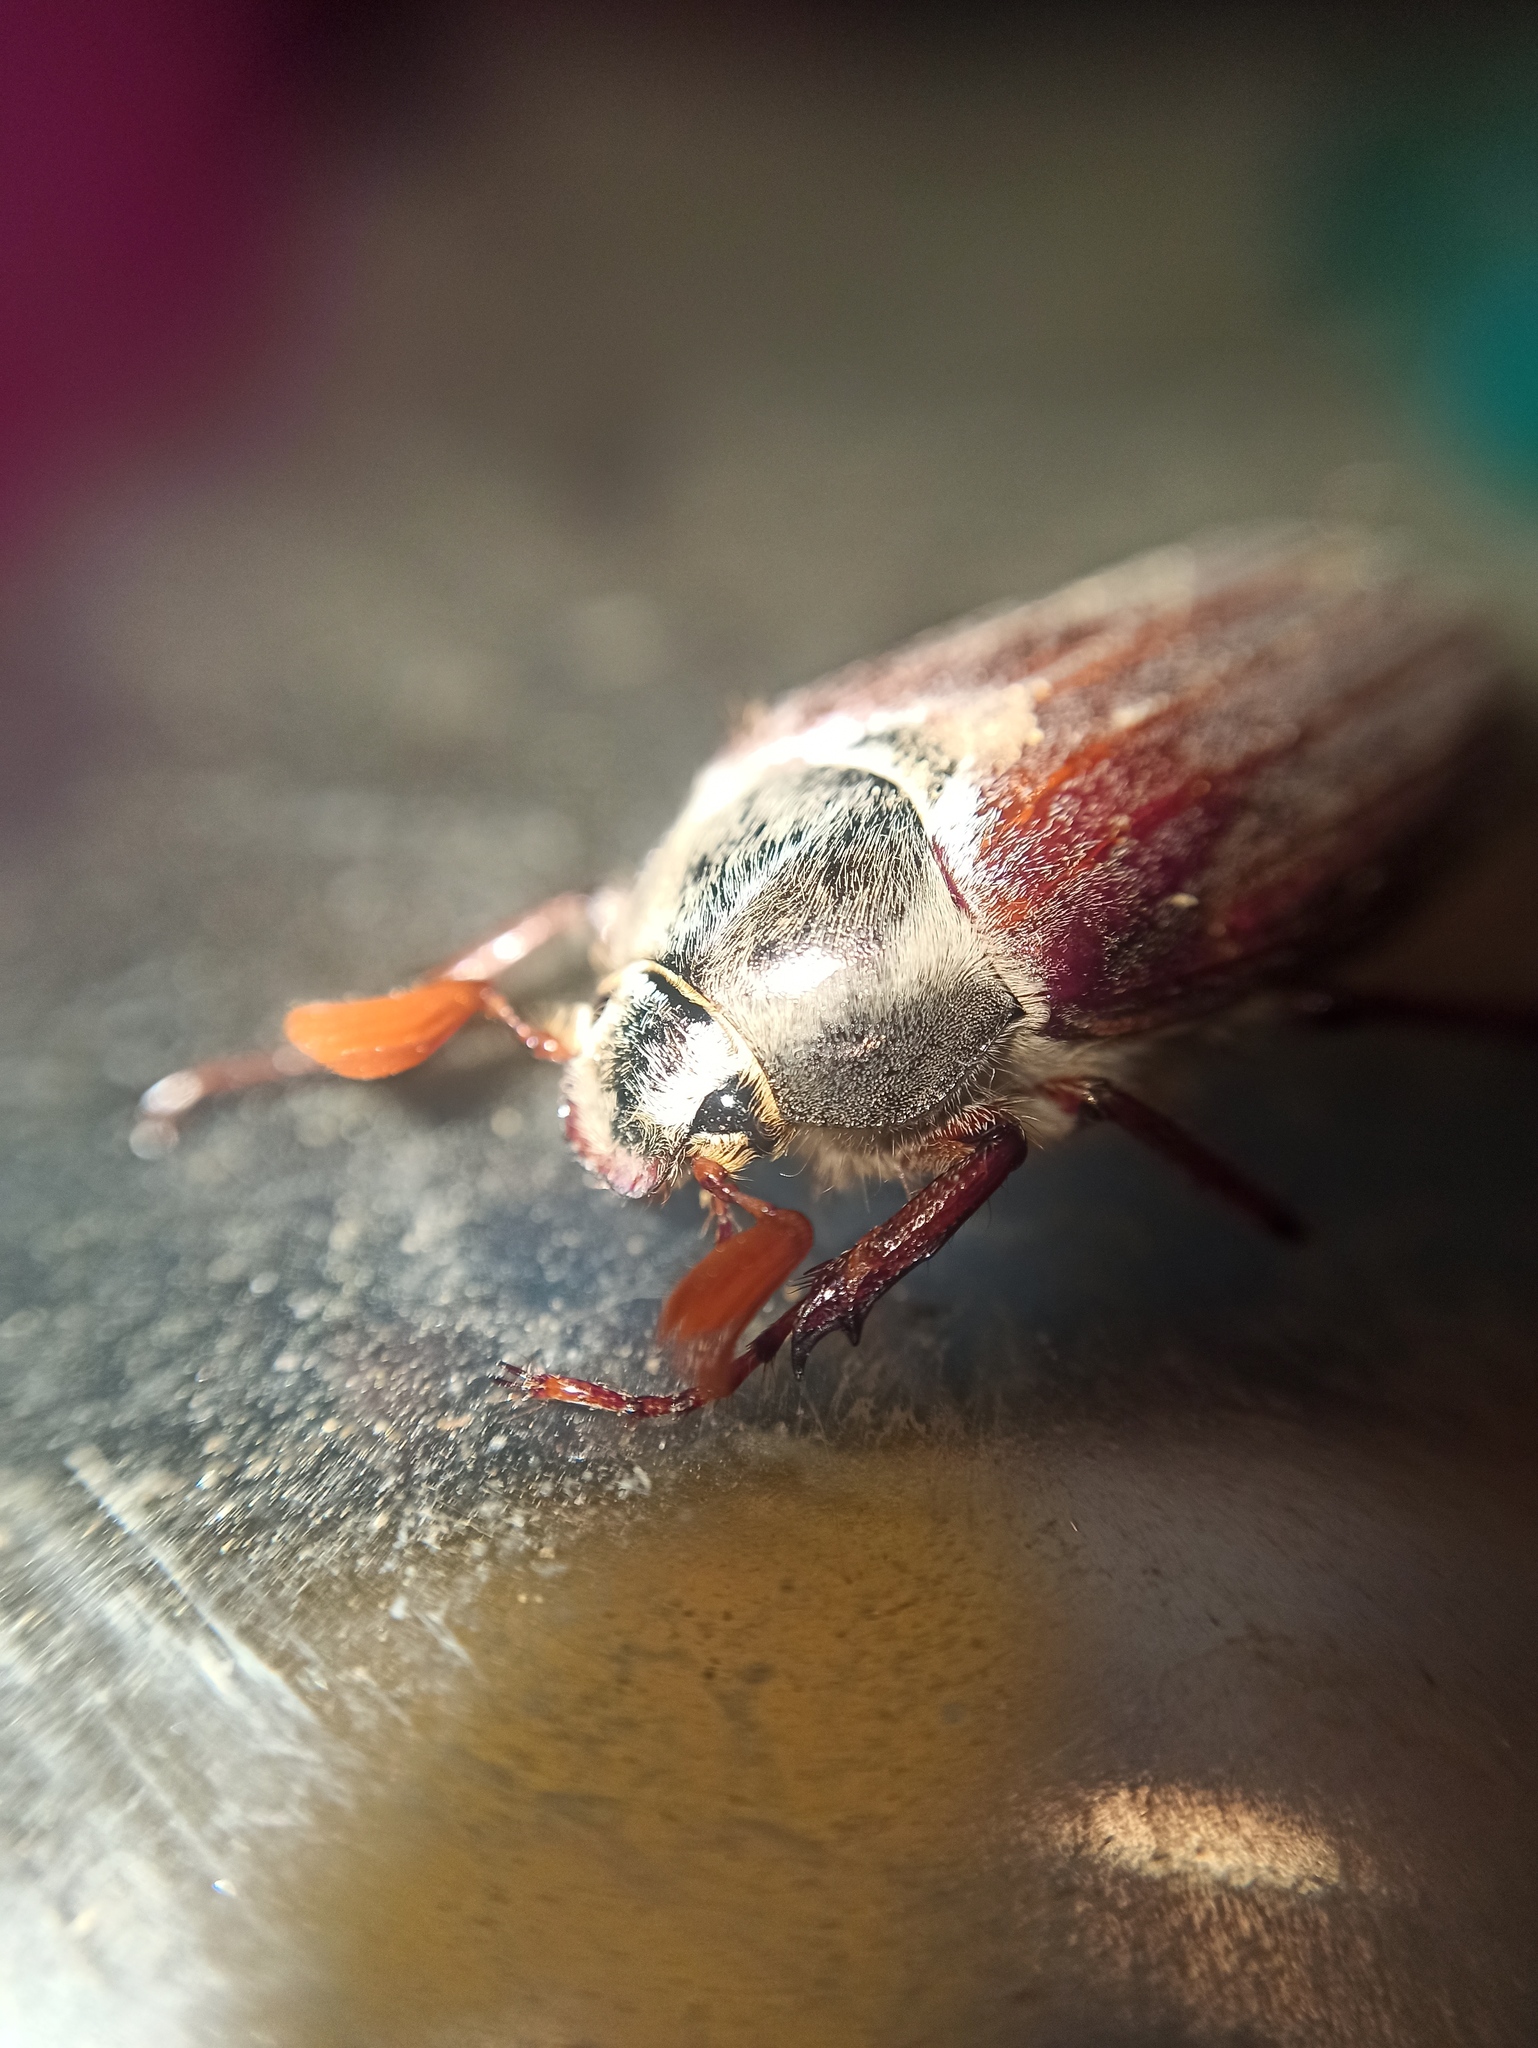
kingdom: Animalia
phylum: Arthropoda
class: Insecta
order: Coleoptera
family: Scarabaeidae
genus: Melolontha
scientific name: Melolontha melolontha
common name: Cockchafer maybeetle
